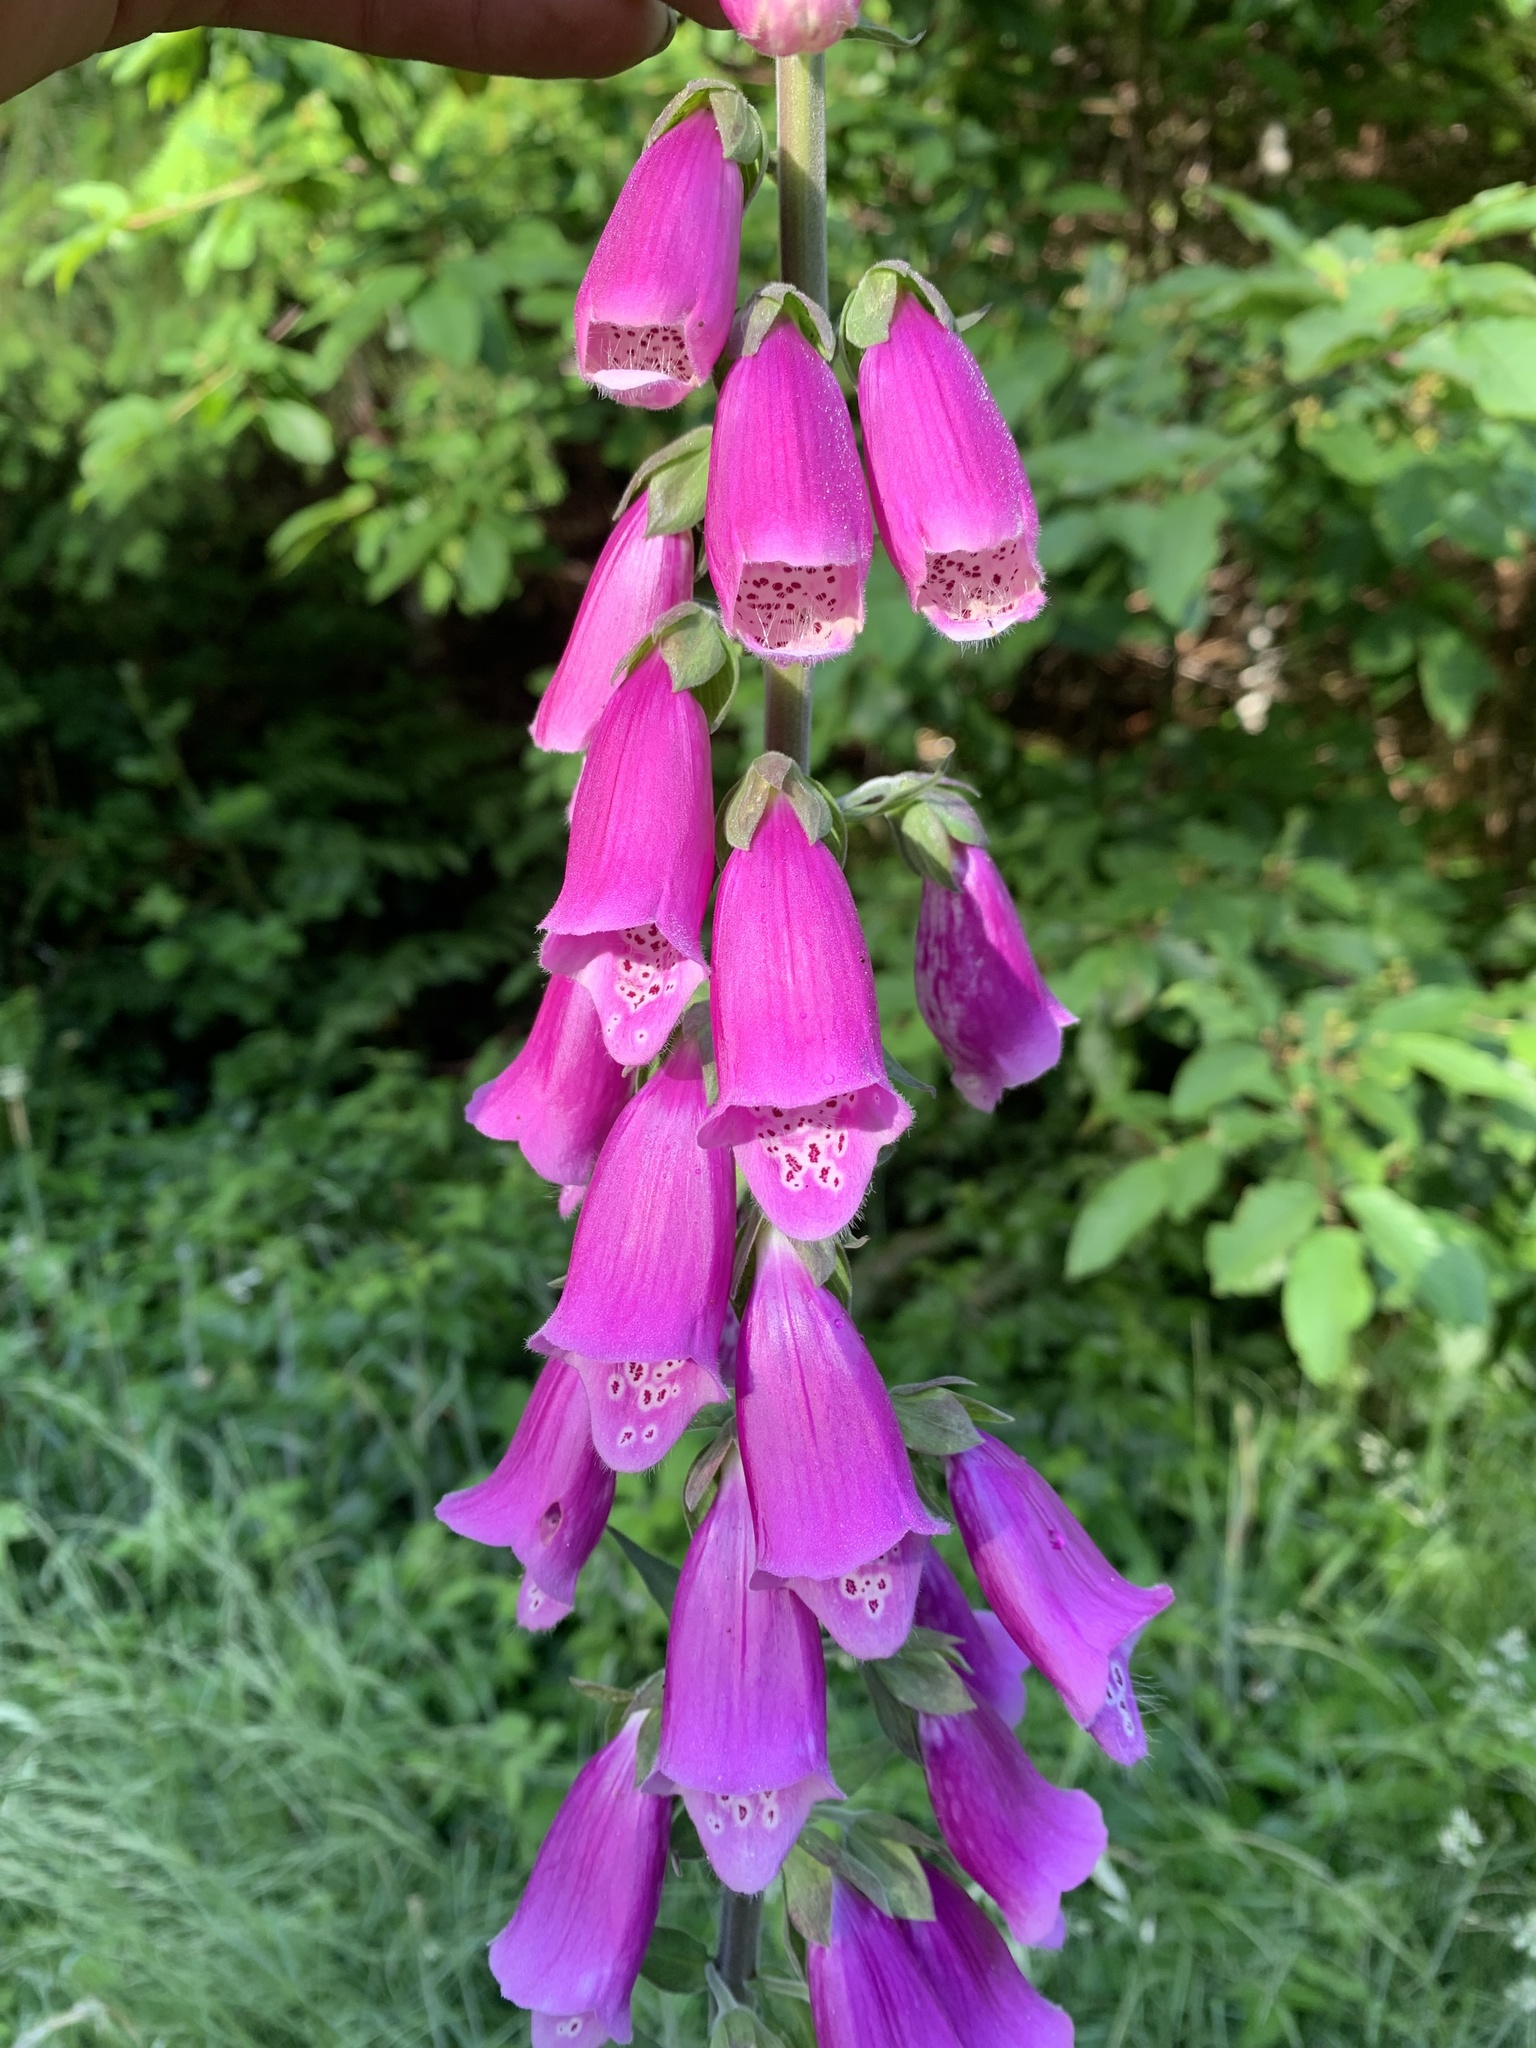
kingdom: Plantae
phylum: Tracheophyta
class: Magnoliopsida
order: Lamiales
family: Plantaginaceae
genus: Digitalis
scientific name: Digitalis purpurea
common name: Foxglove
